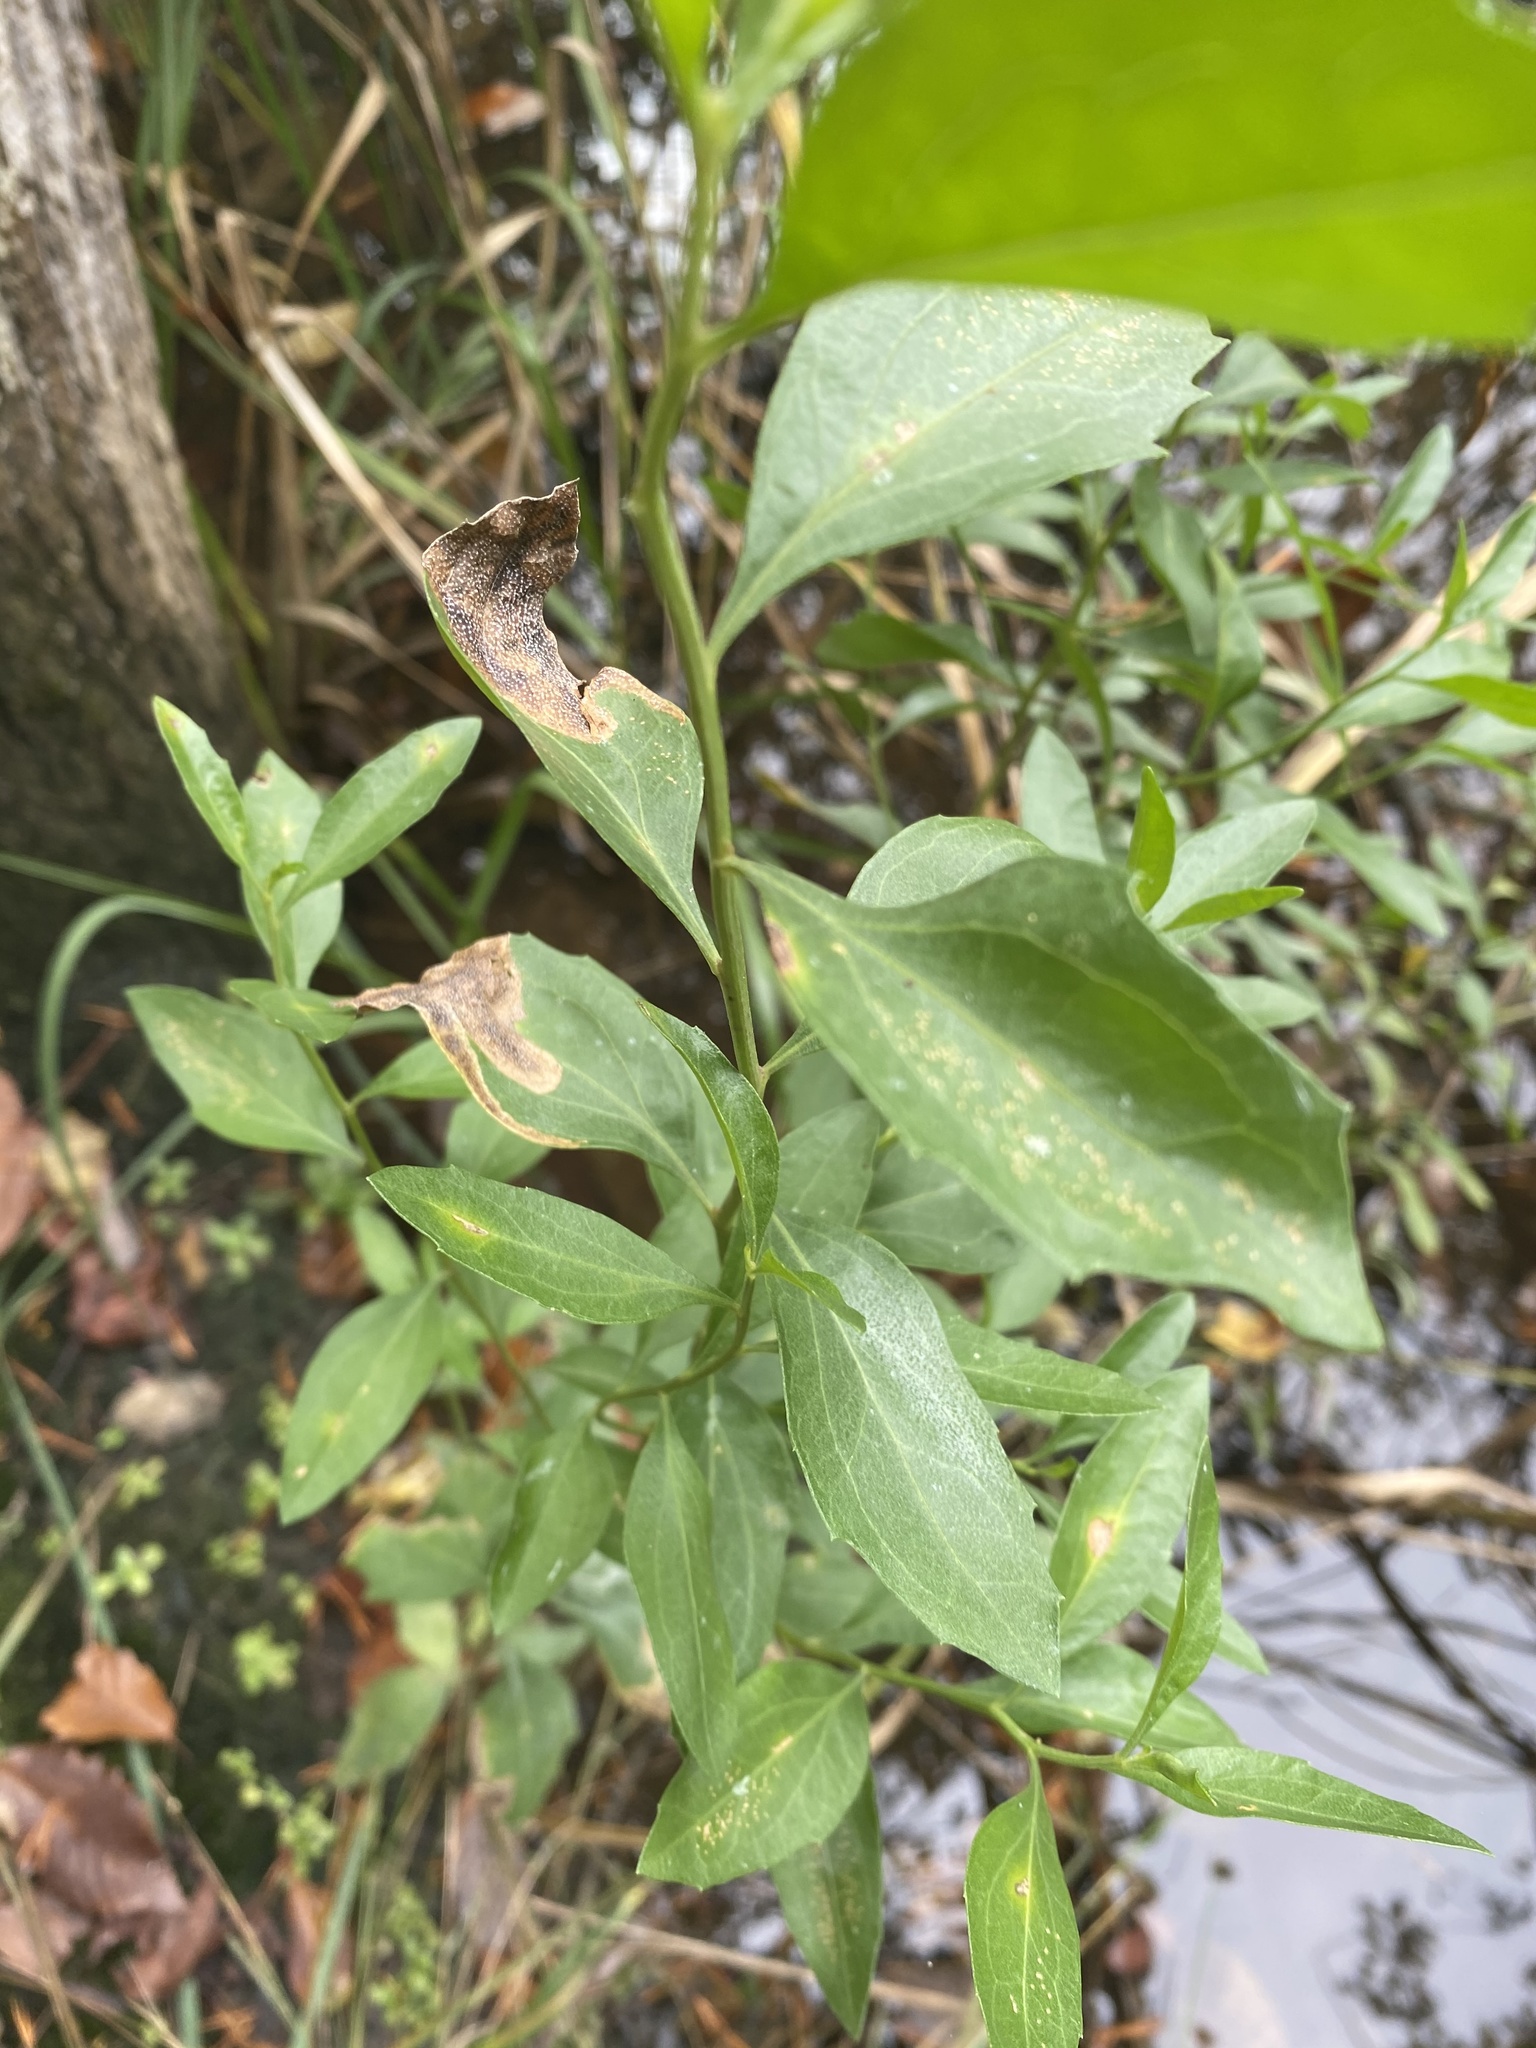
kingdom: Plantae
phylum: Tracheophyta
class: Magnoliopsida
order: Asterales
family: Asteraceae
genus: Iva
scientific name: Iva frutescens
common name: Big-leaved marsh-elder
